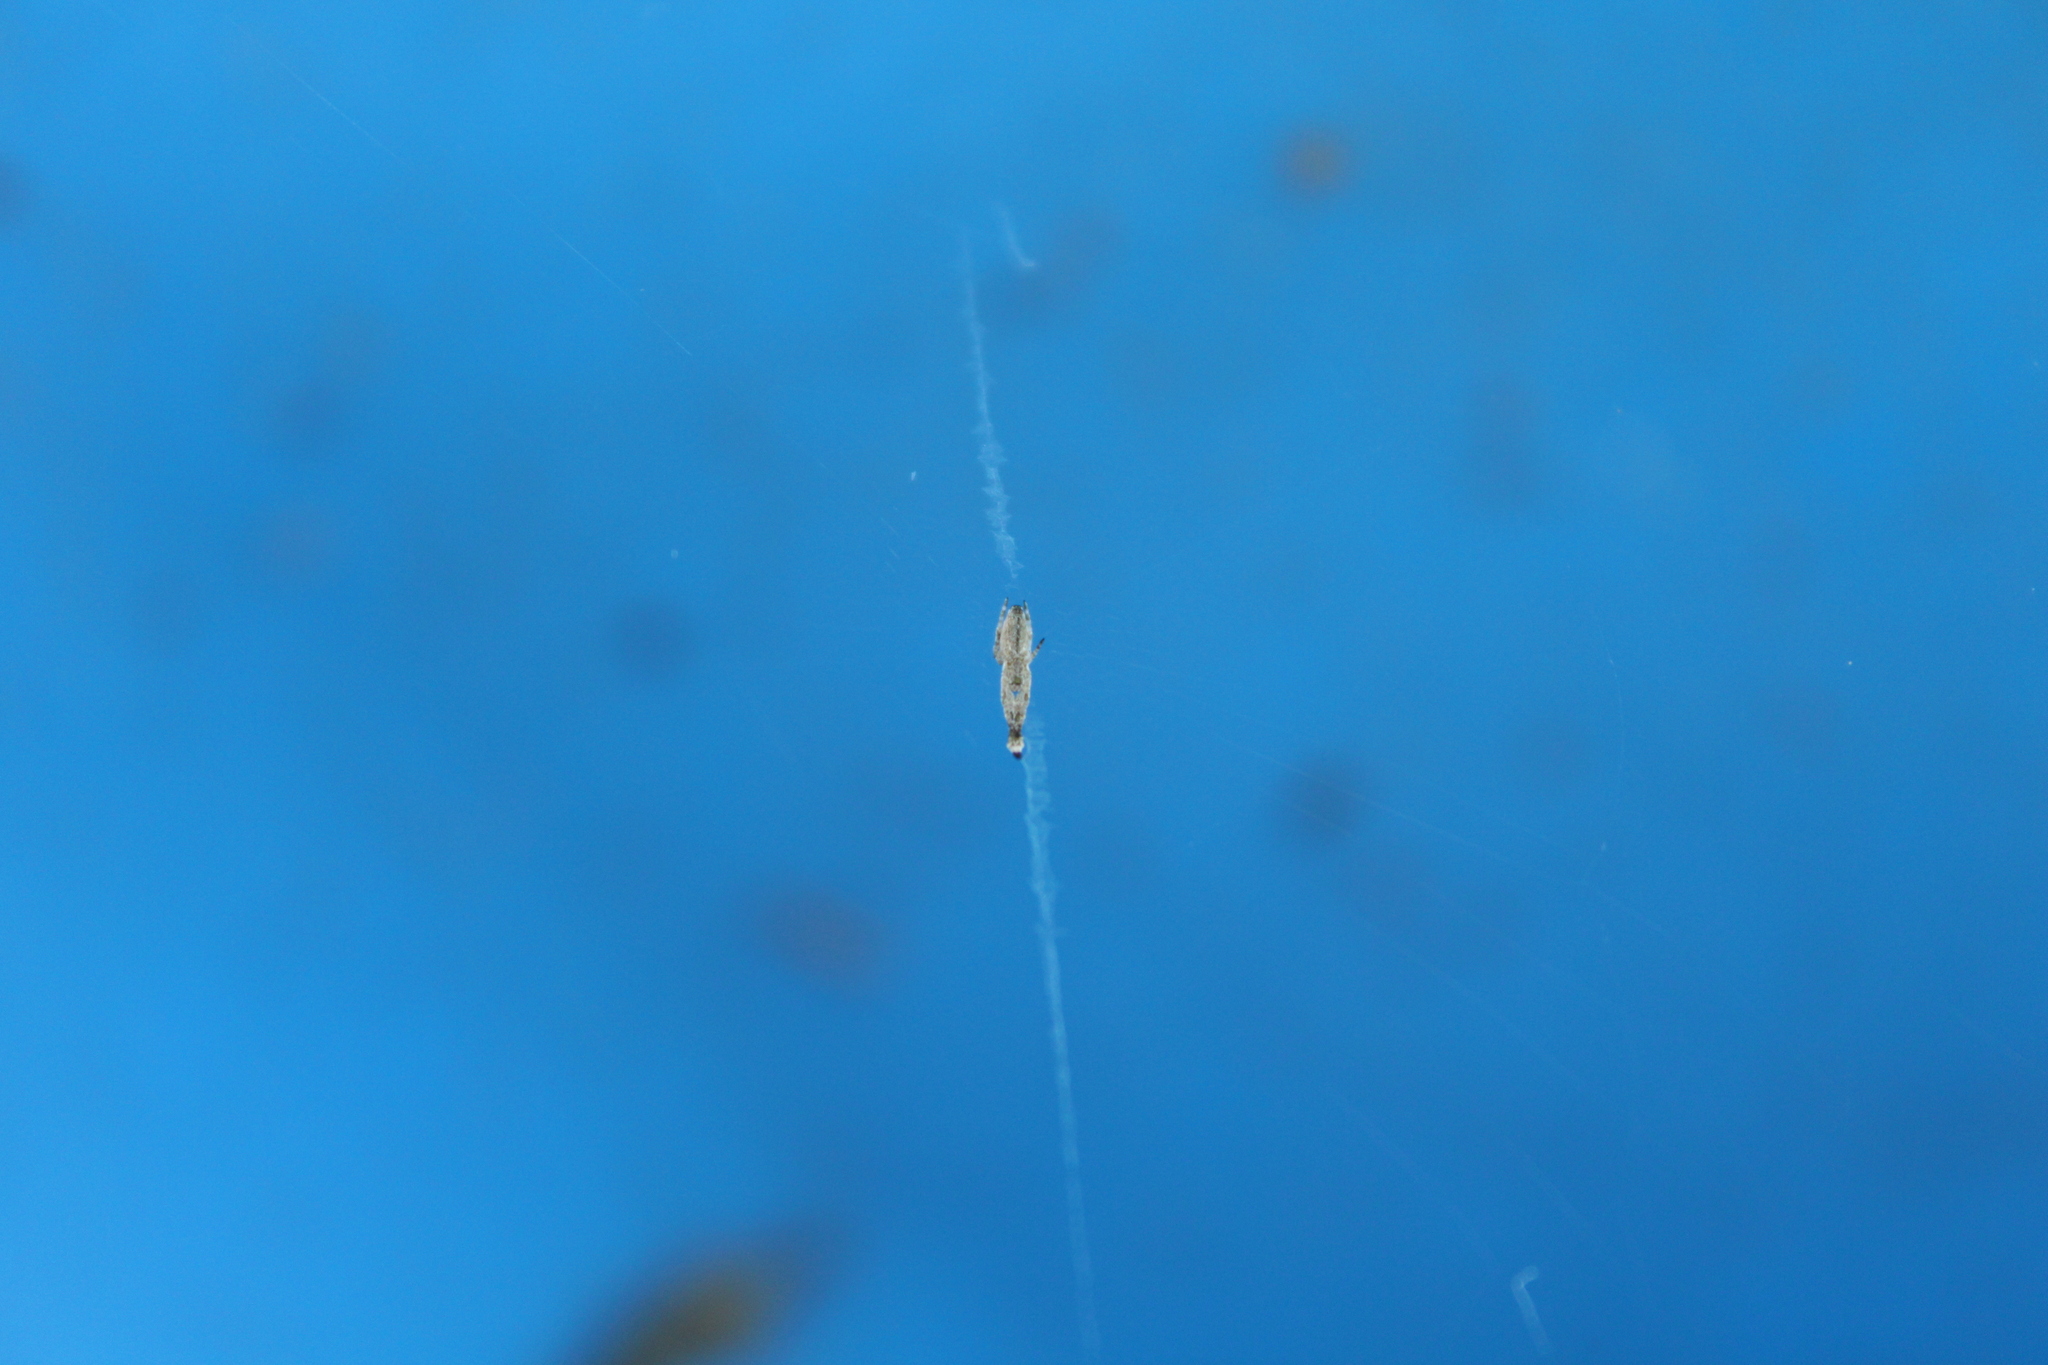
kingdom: Animalia
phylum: Arthropoda
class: Arachnida
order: Araneae
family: Uloboridae
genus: Uloborus
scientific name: Uloborus glomosus
